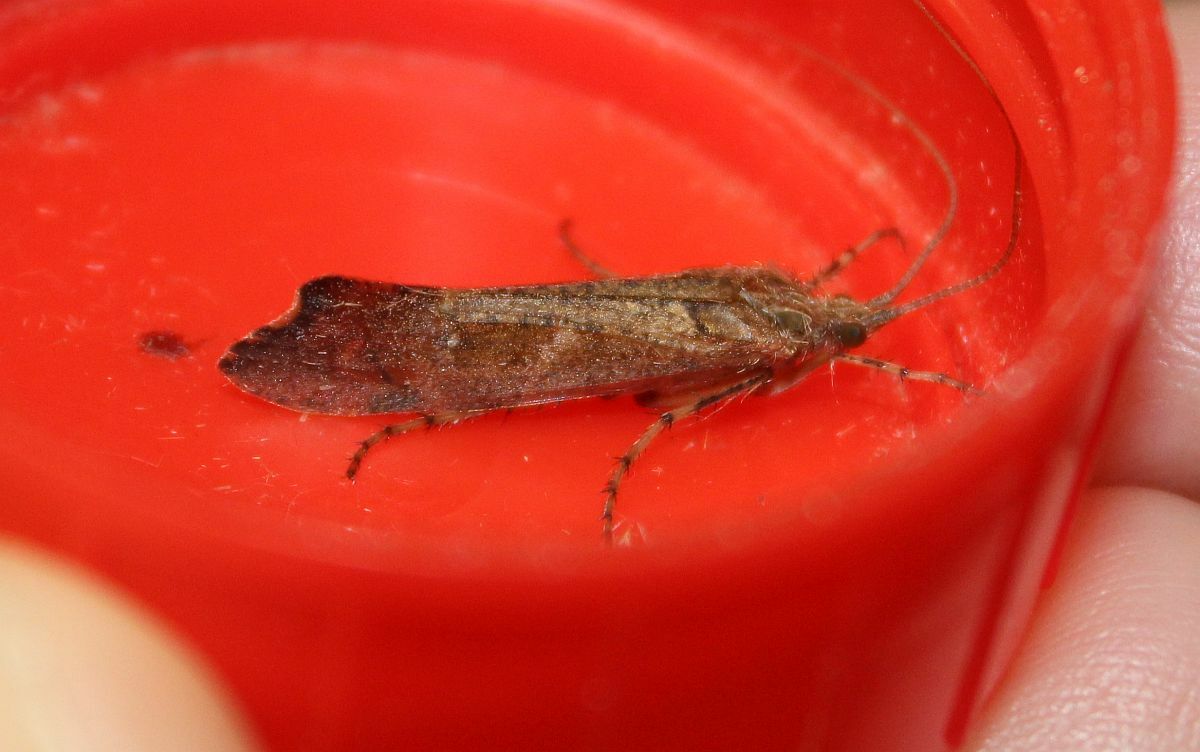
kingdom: Animalia
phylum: Arthropoda
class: Insecta
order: Trichoptera
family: Limnephilidae
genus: Glyphotaelius
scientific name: Glyphotaelius pellucidus
